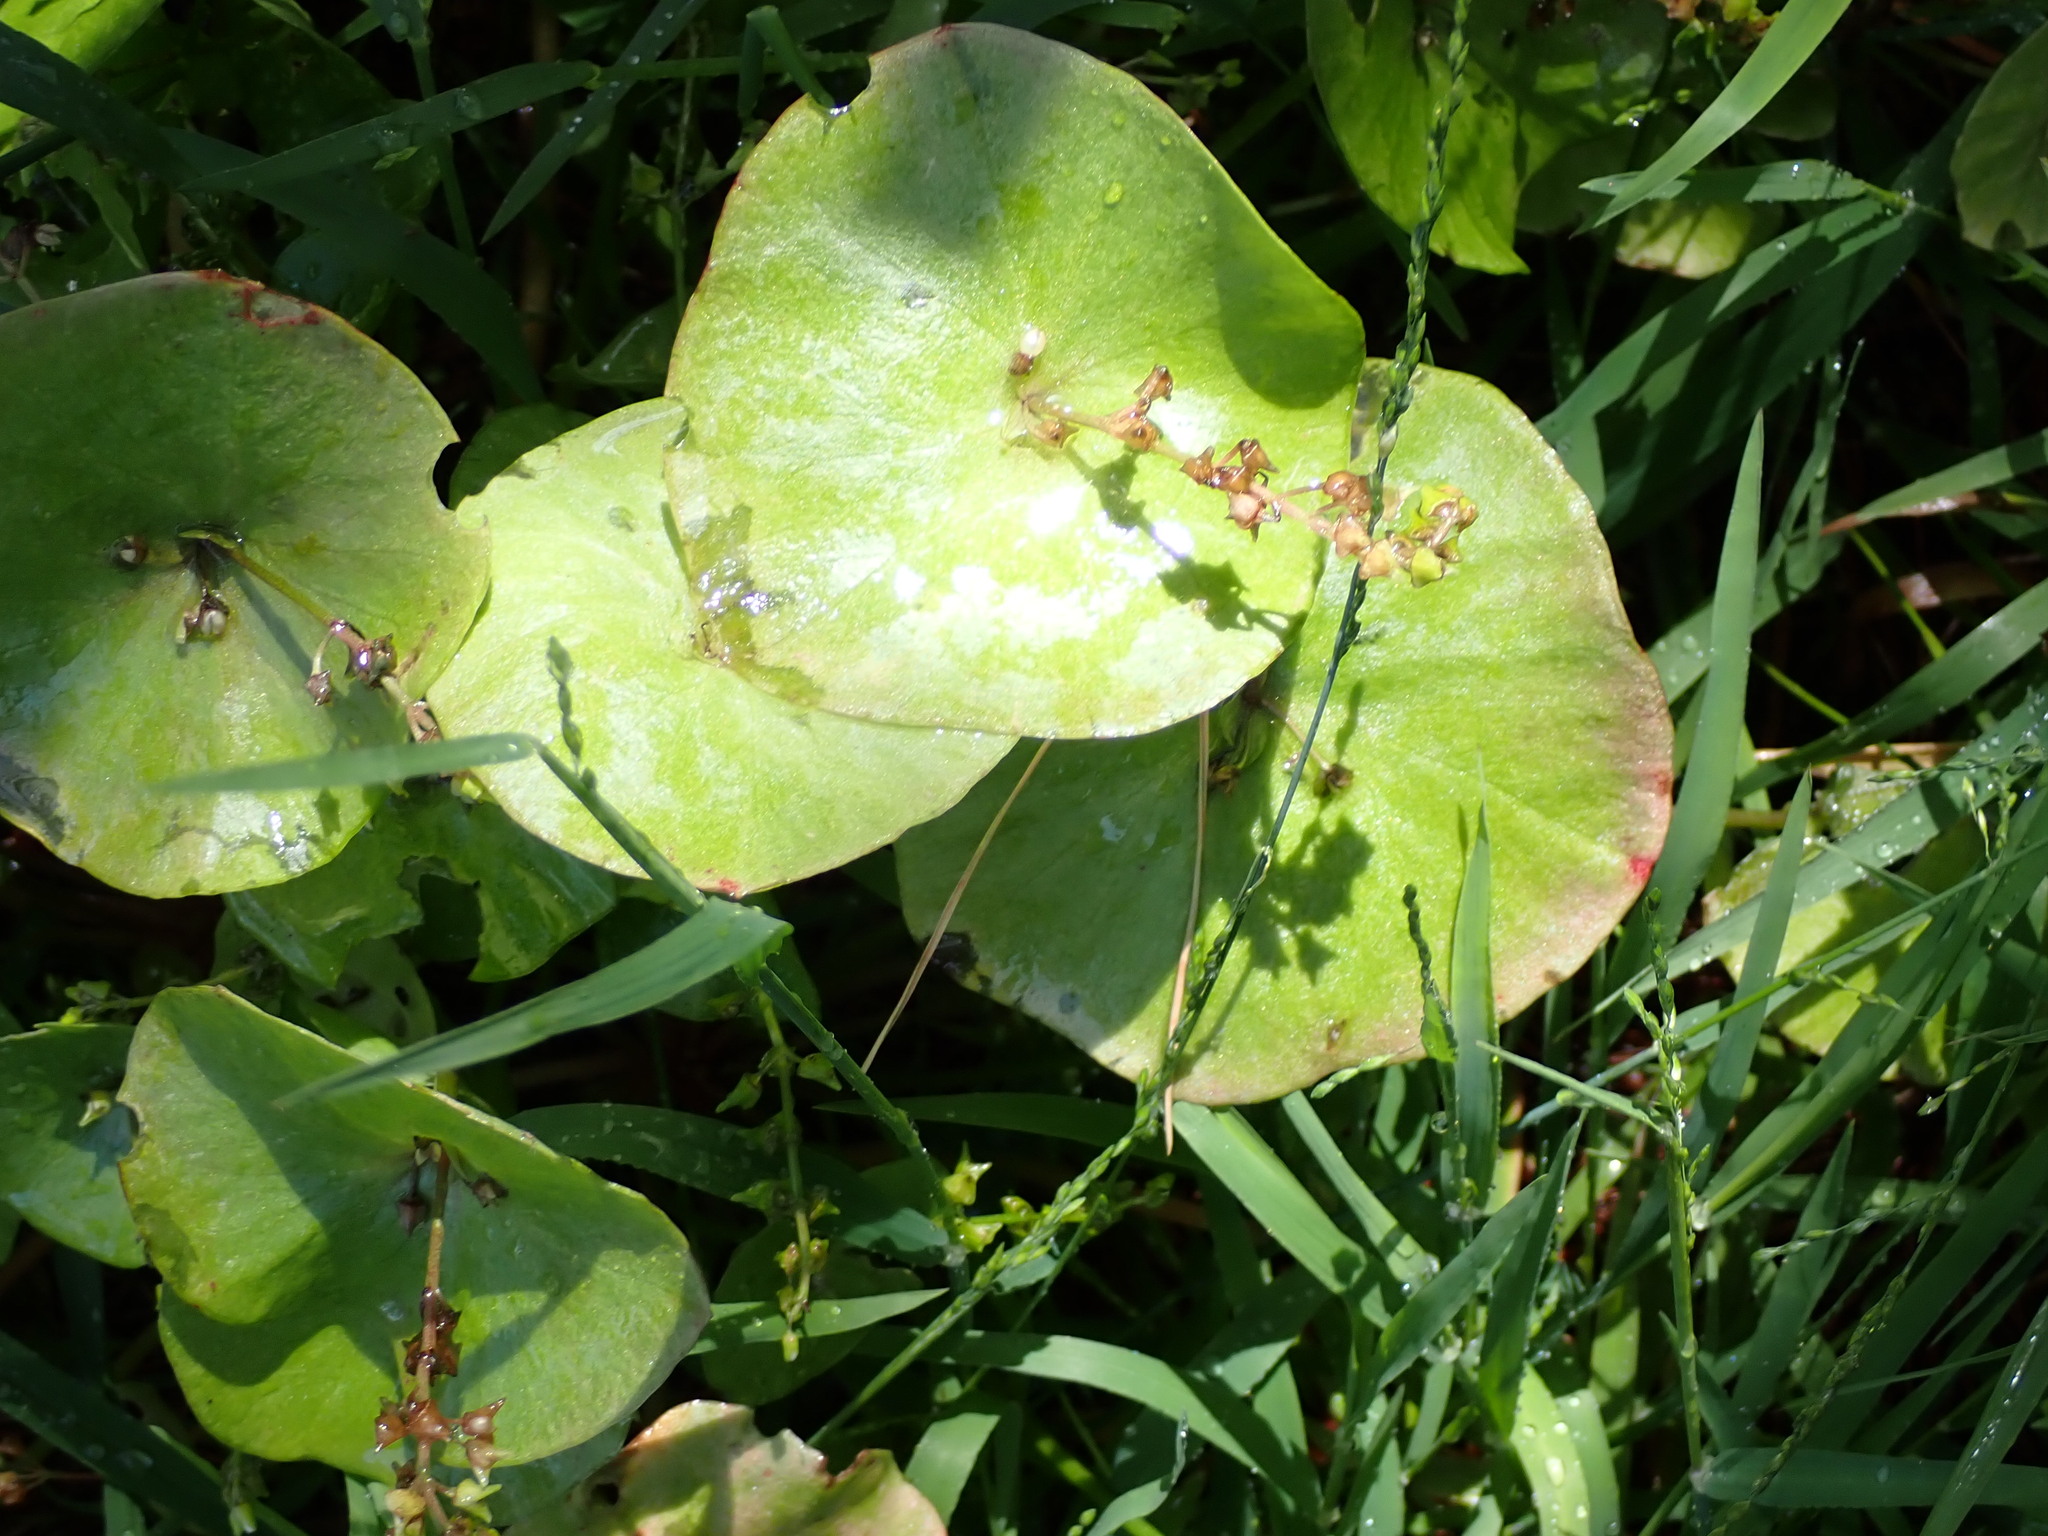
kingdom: Plantae
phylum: Tracheophyta
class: Magnoliopsida
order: Caryophyllales
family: Montiaceae
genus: Claytonia
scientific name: Claytonia perfoliata
